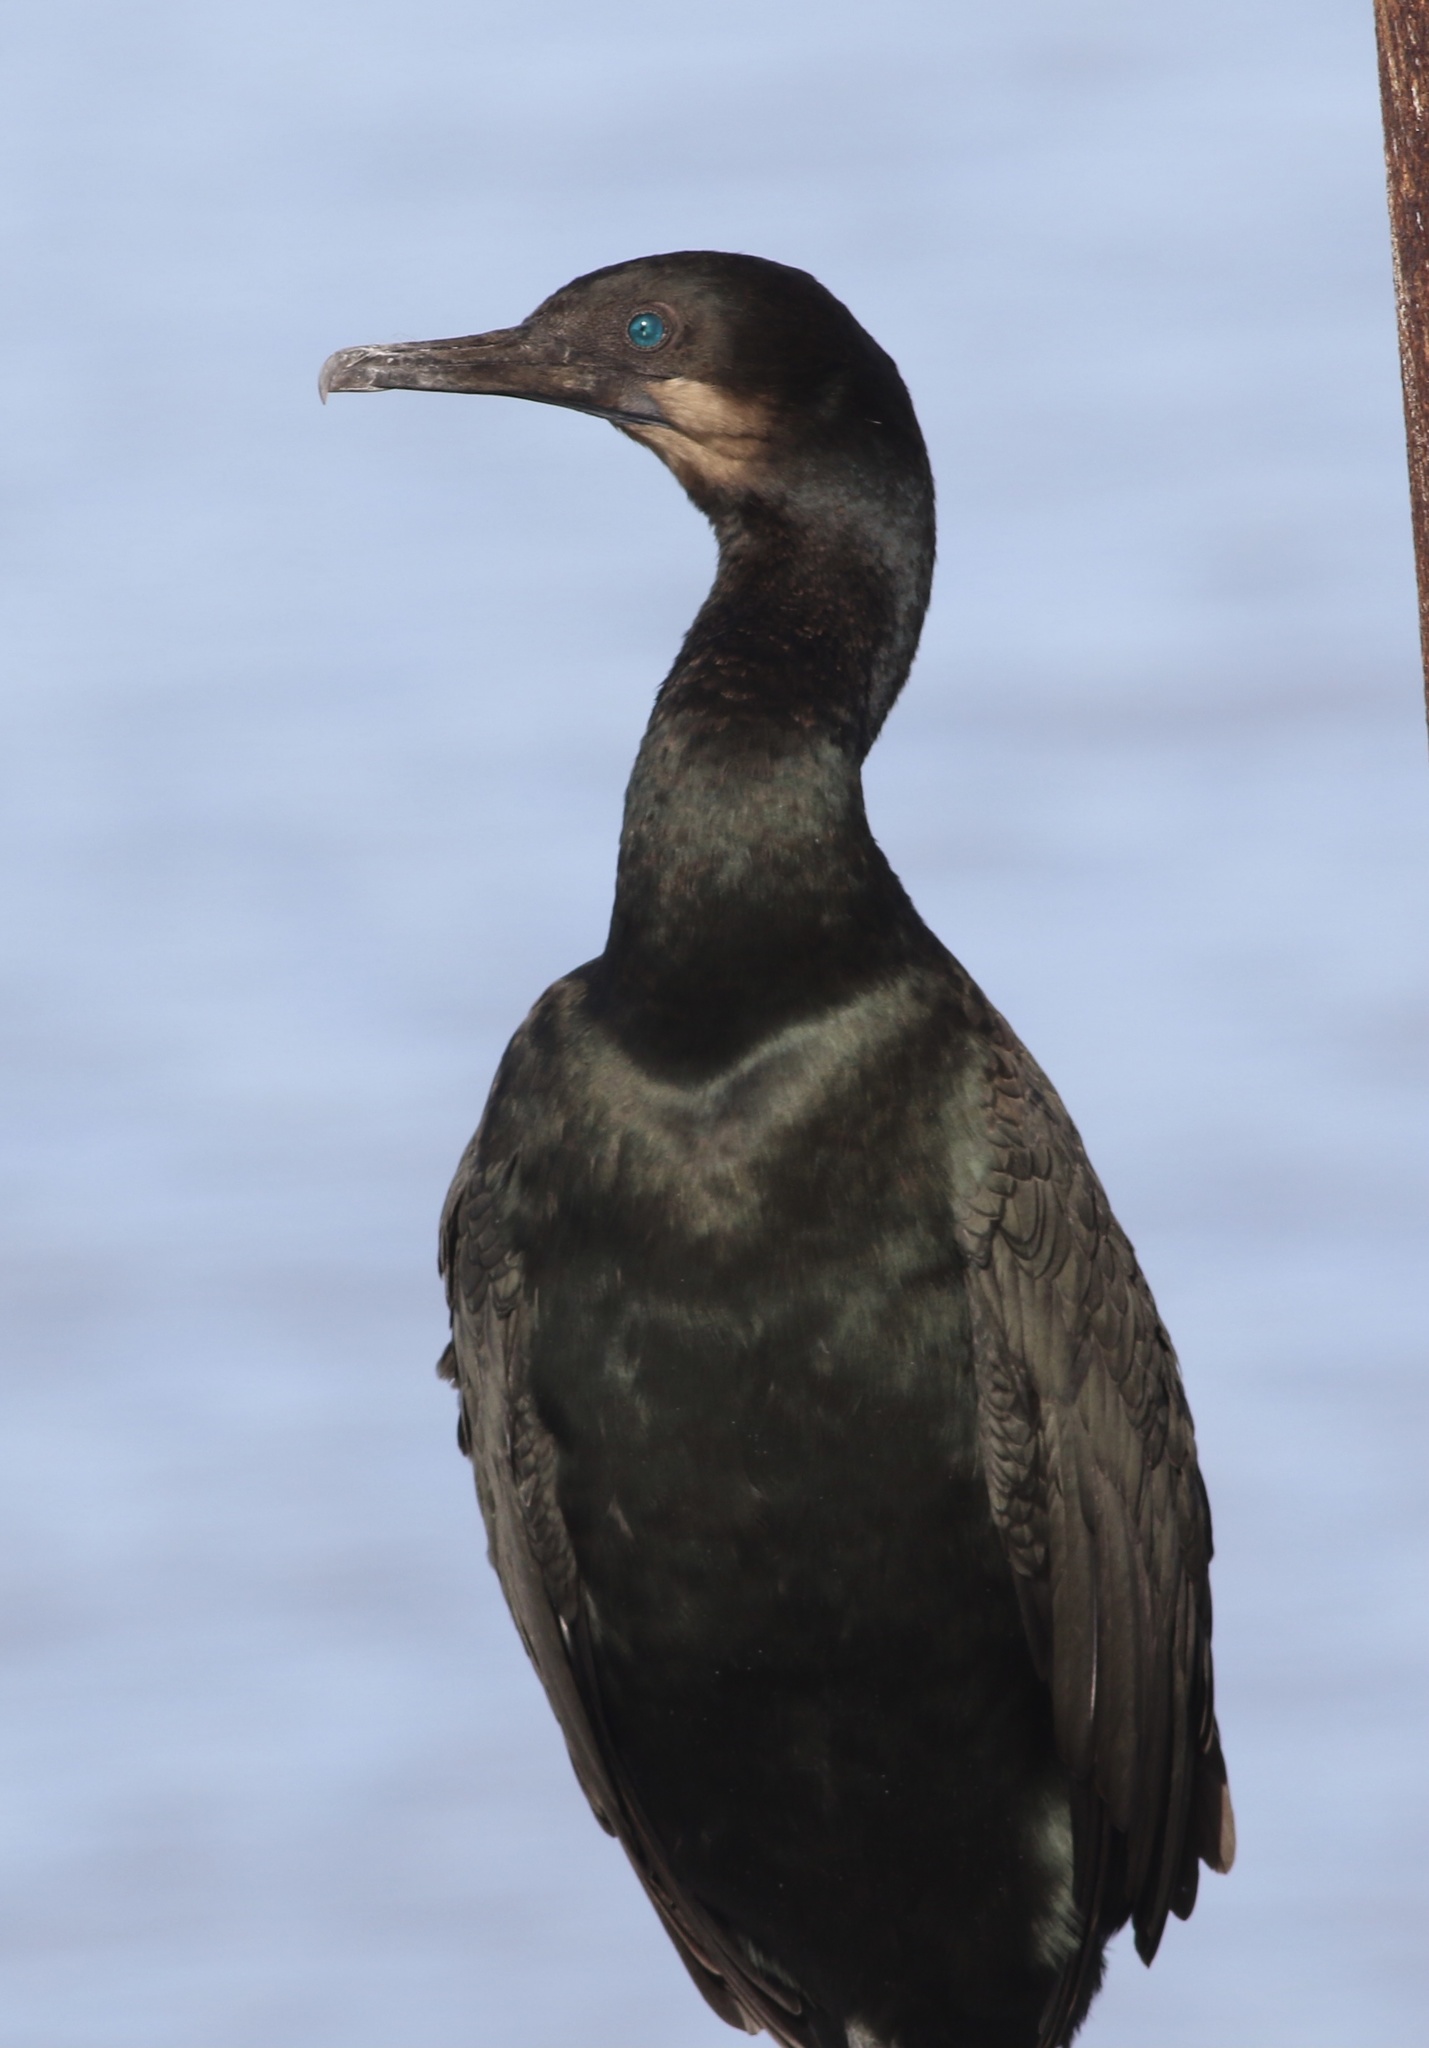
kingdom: Animalia
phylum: Chordata
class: Aves
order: Suliformes
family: Phalacrocoracidae
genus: Urile
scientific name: Urile penicillatus
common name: Brandt's cormorant
